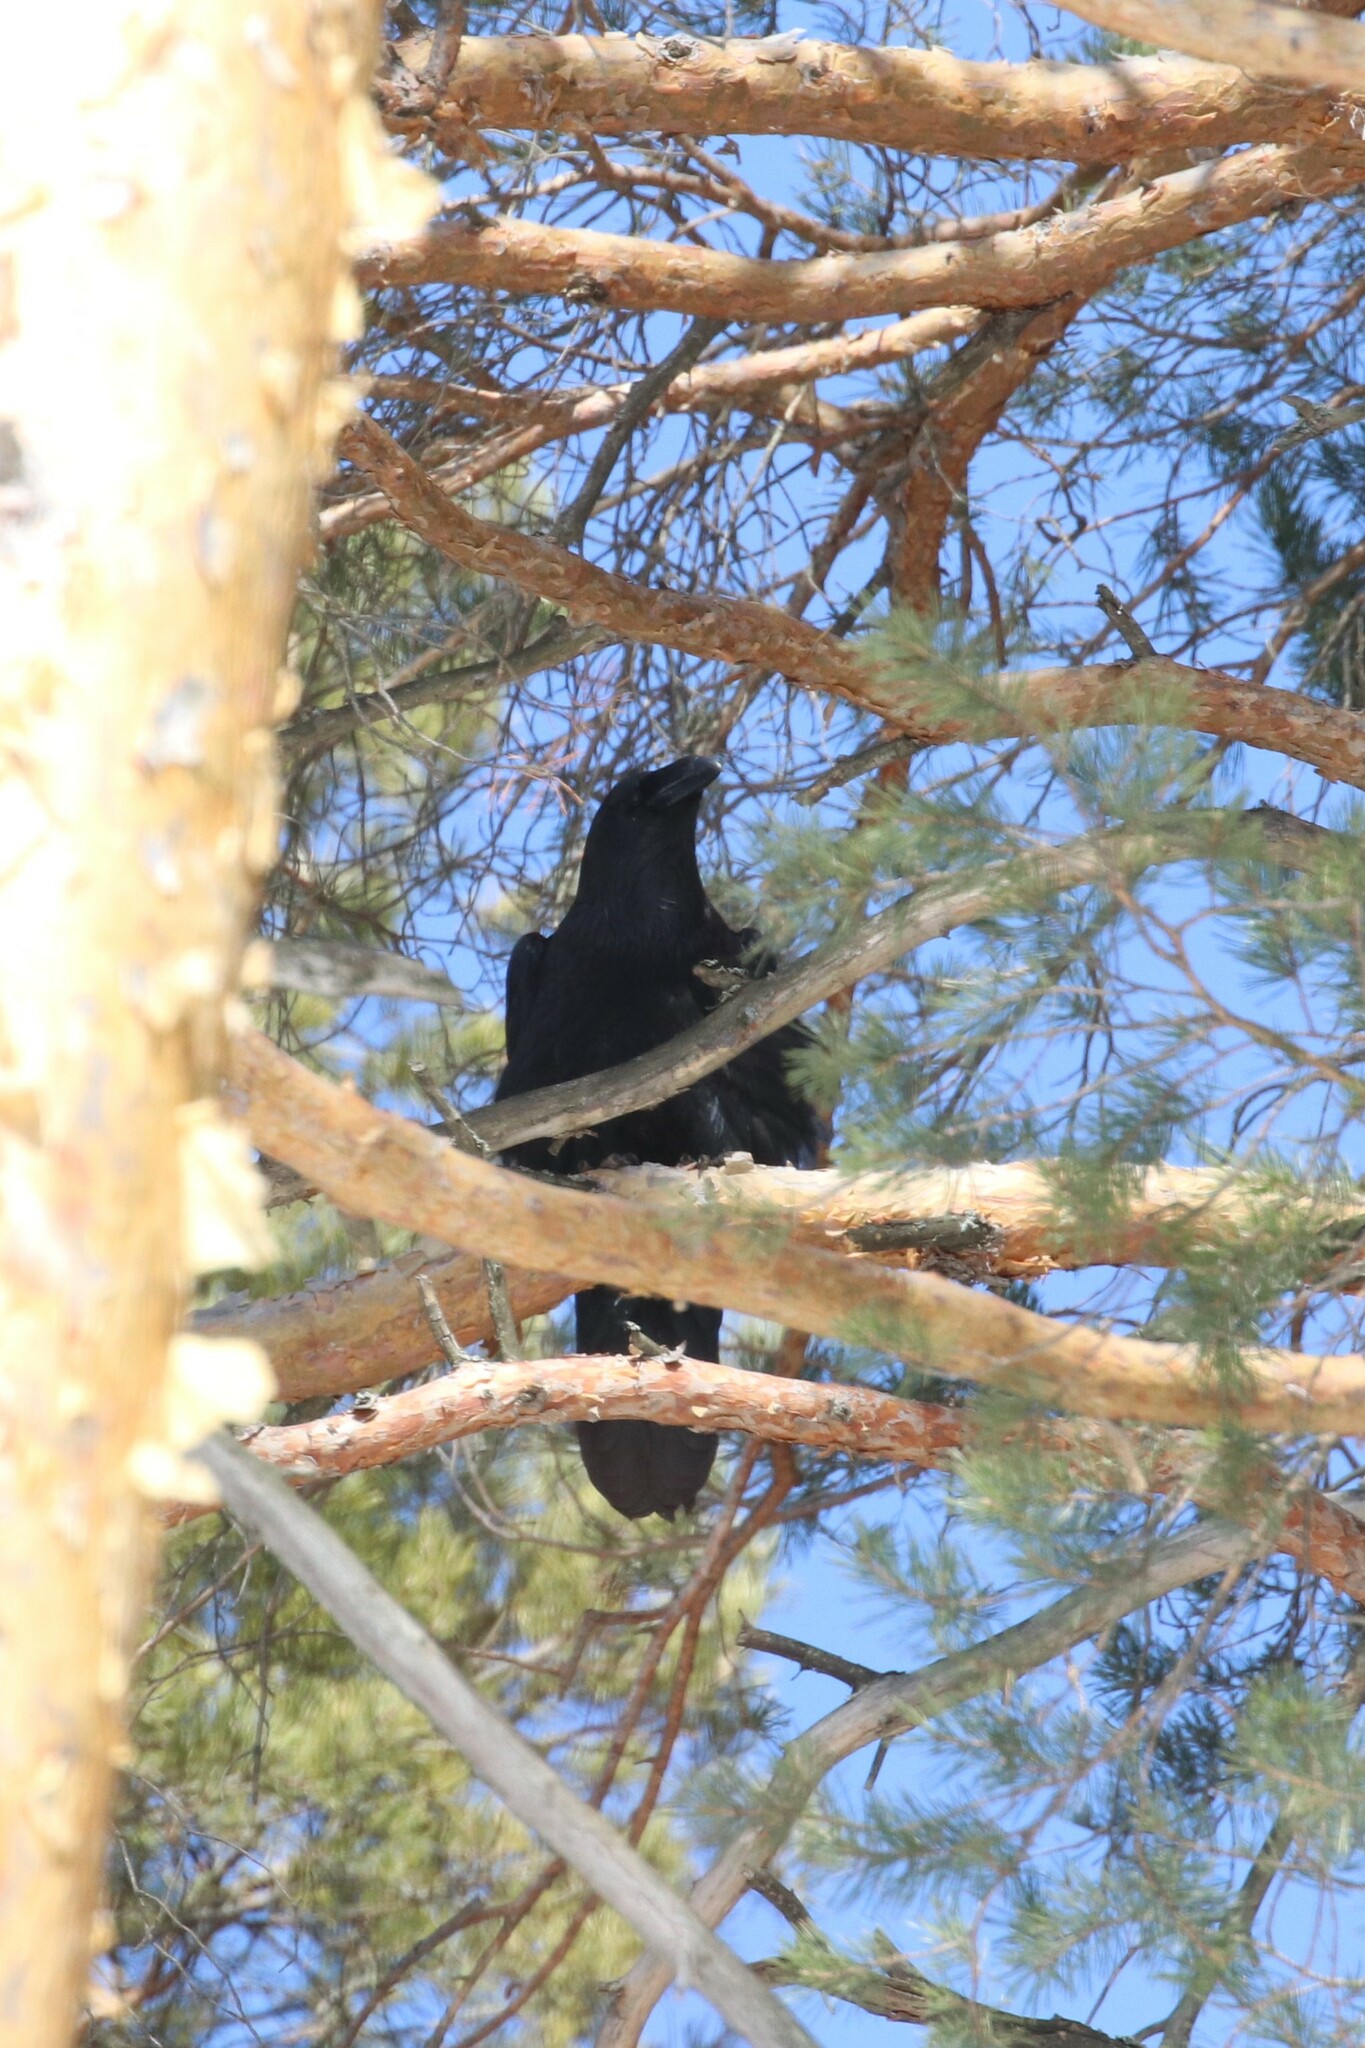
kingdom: Animalia
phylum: Chordata
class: Aves
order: Passeriformes
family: Corvidae
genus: Corvus
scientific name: Corvus corax
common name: Common raven
